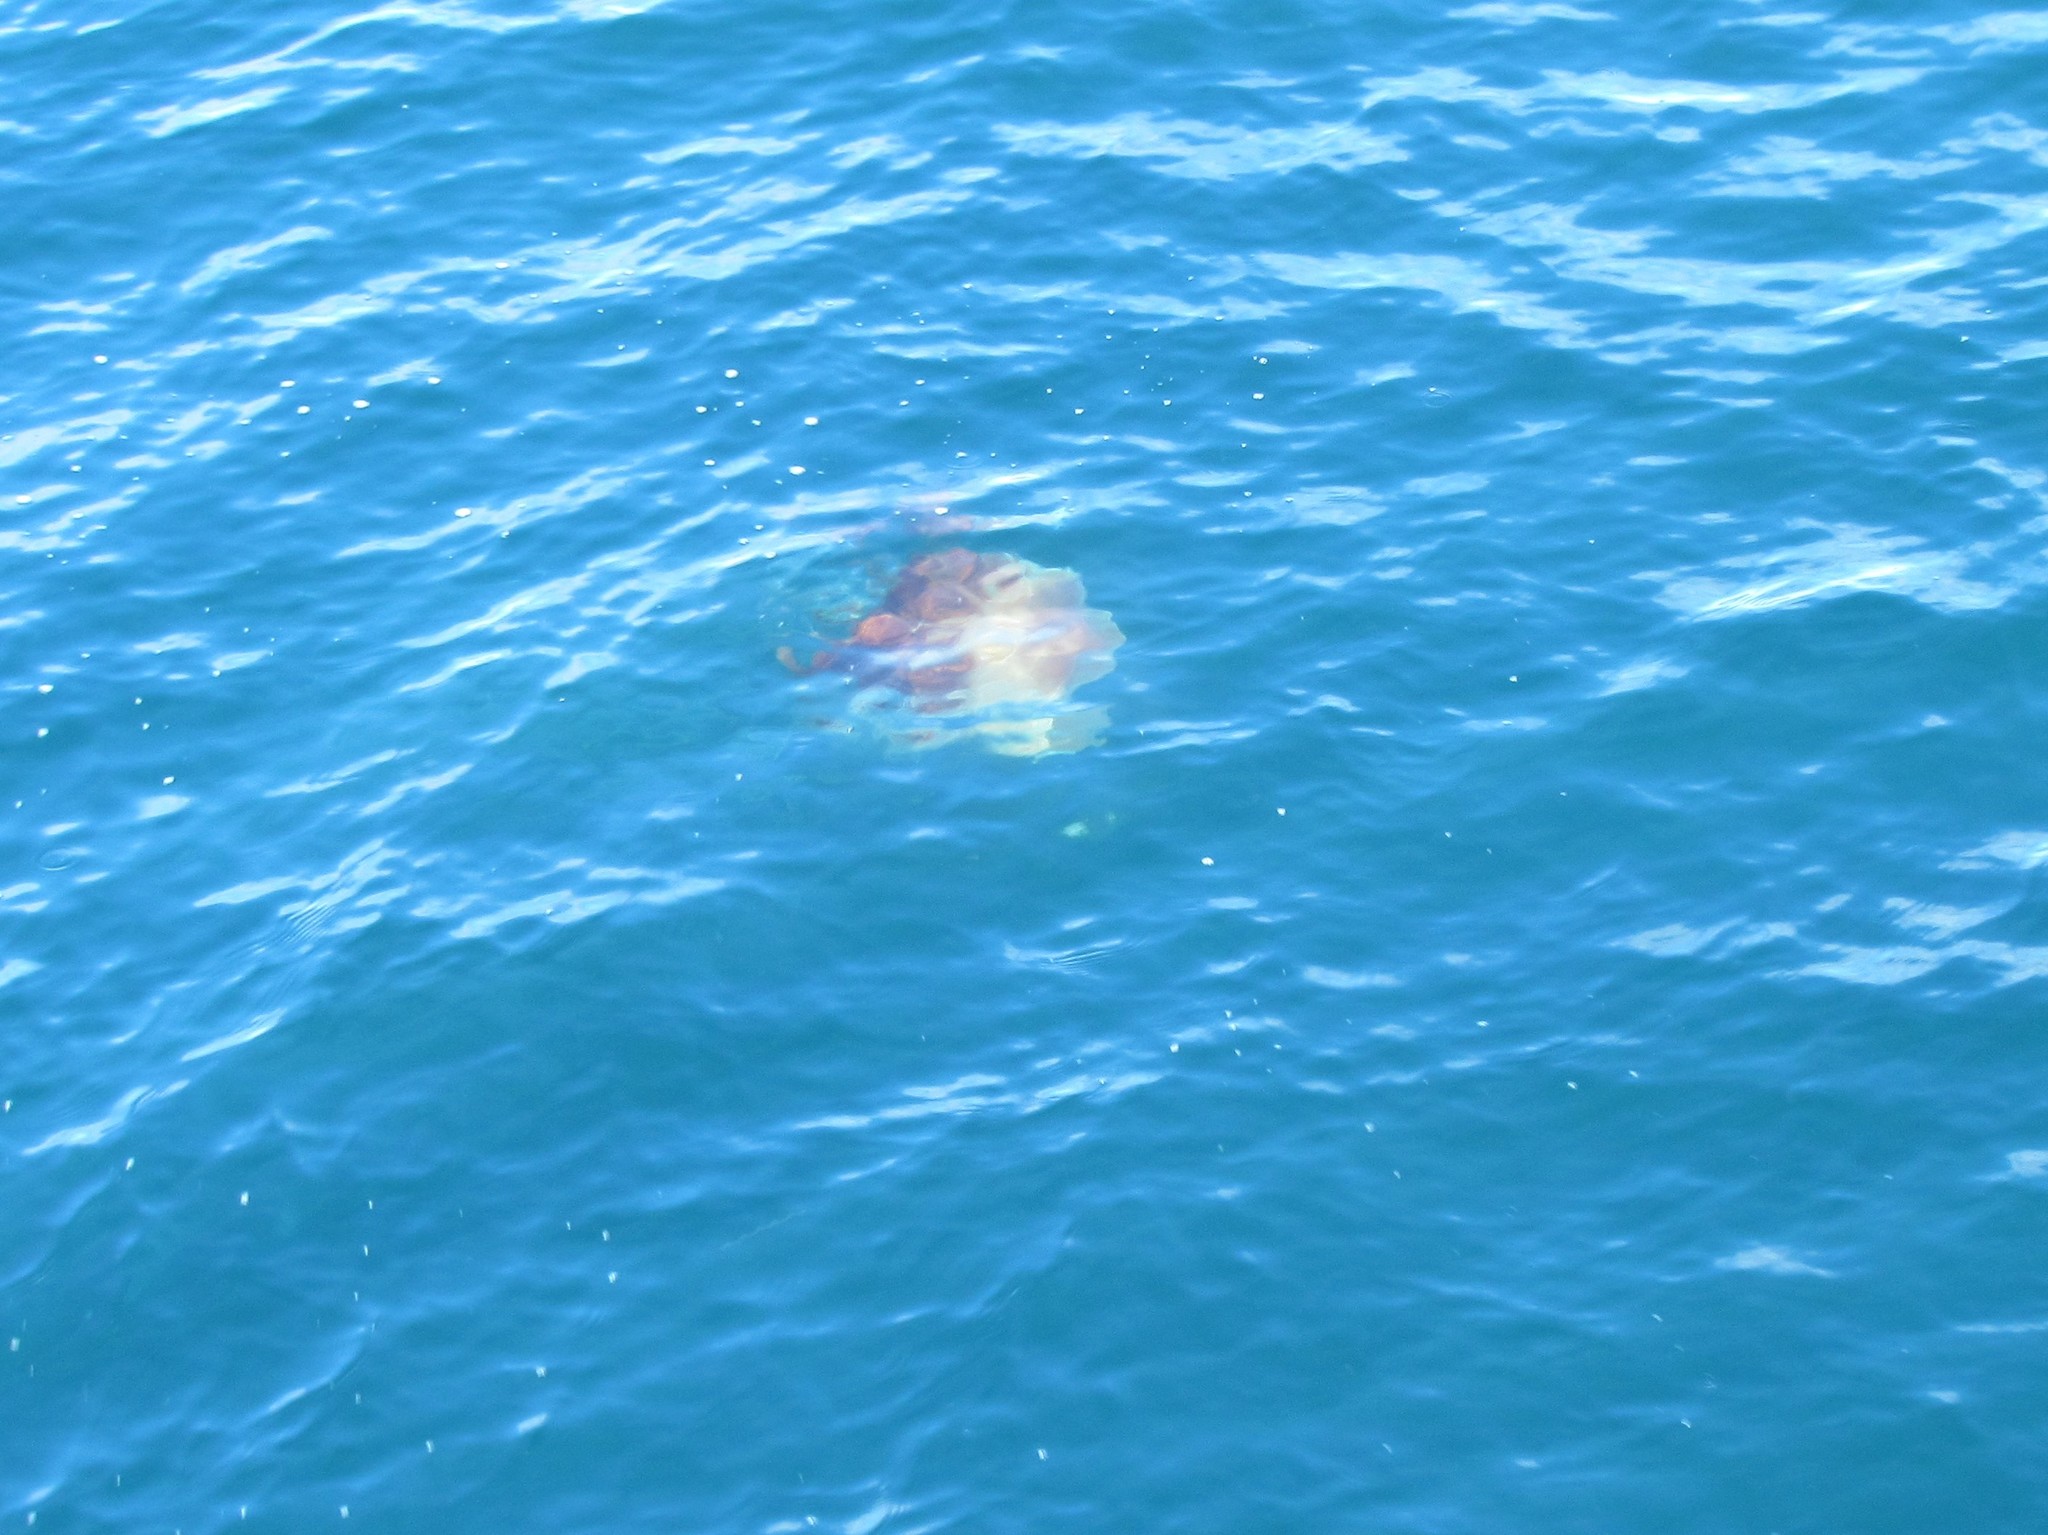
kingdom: Animalia
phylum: Cnidaria
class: Scyphozoa
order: Semaeostomeae
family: Cyaneidae
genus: Cyanea
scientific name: Cyanea capillata
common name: Lion's mane jellyfish
